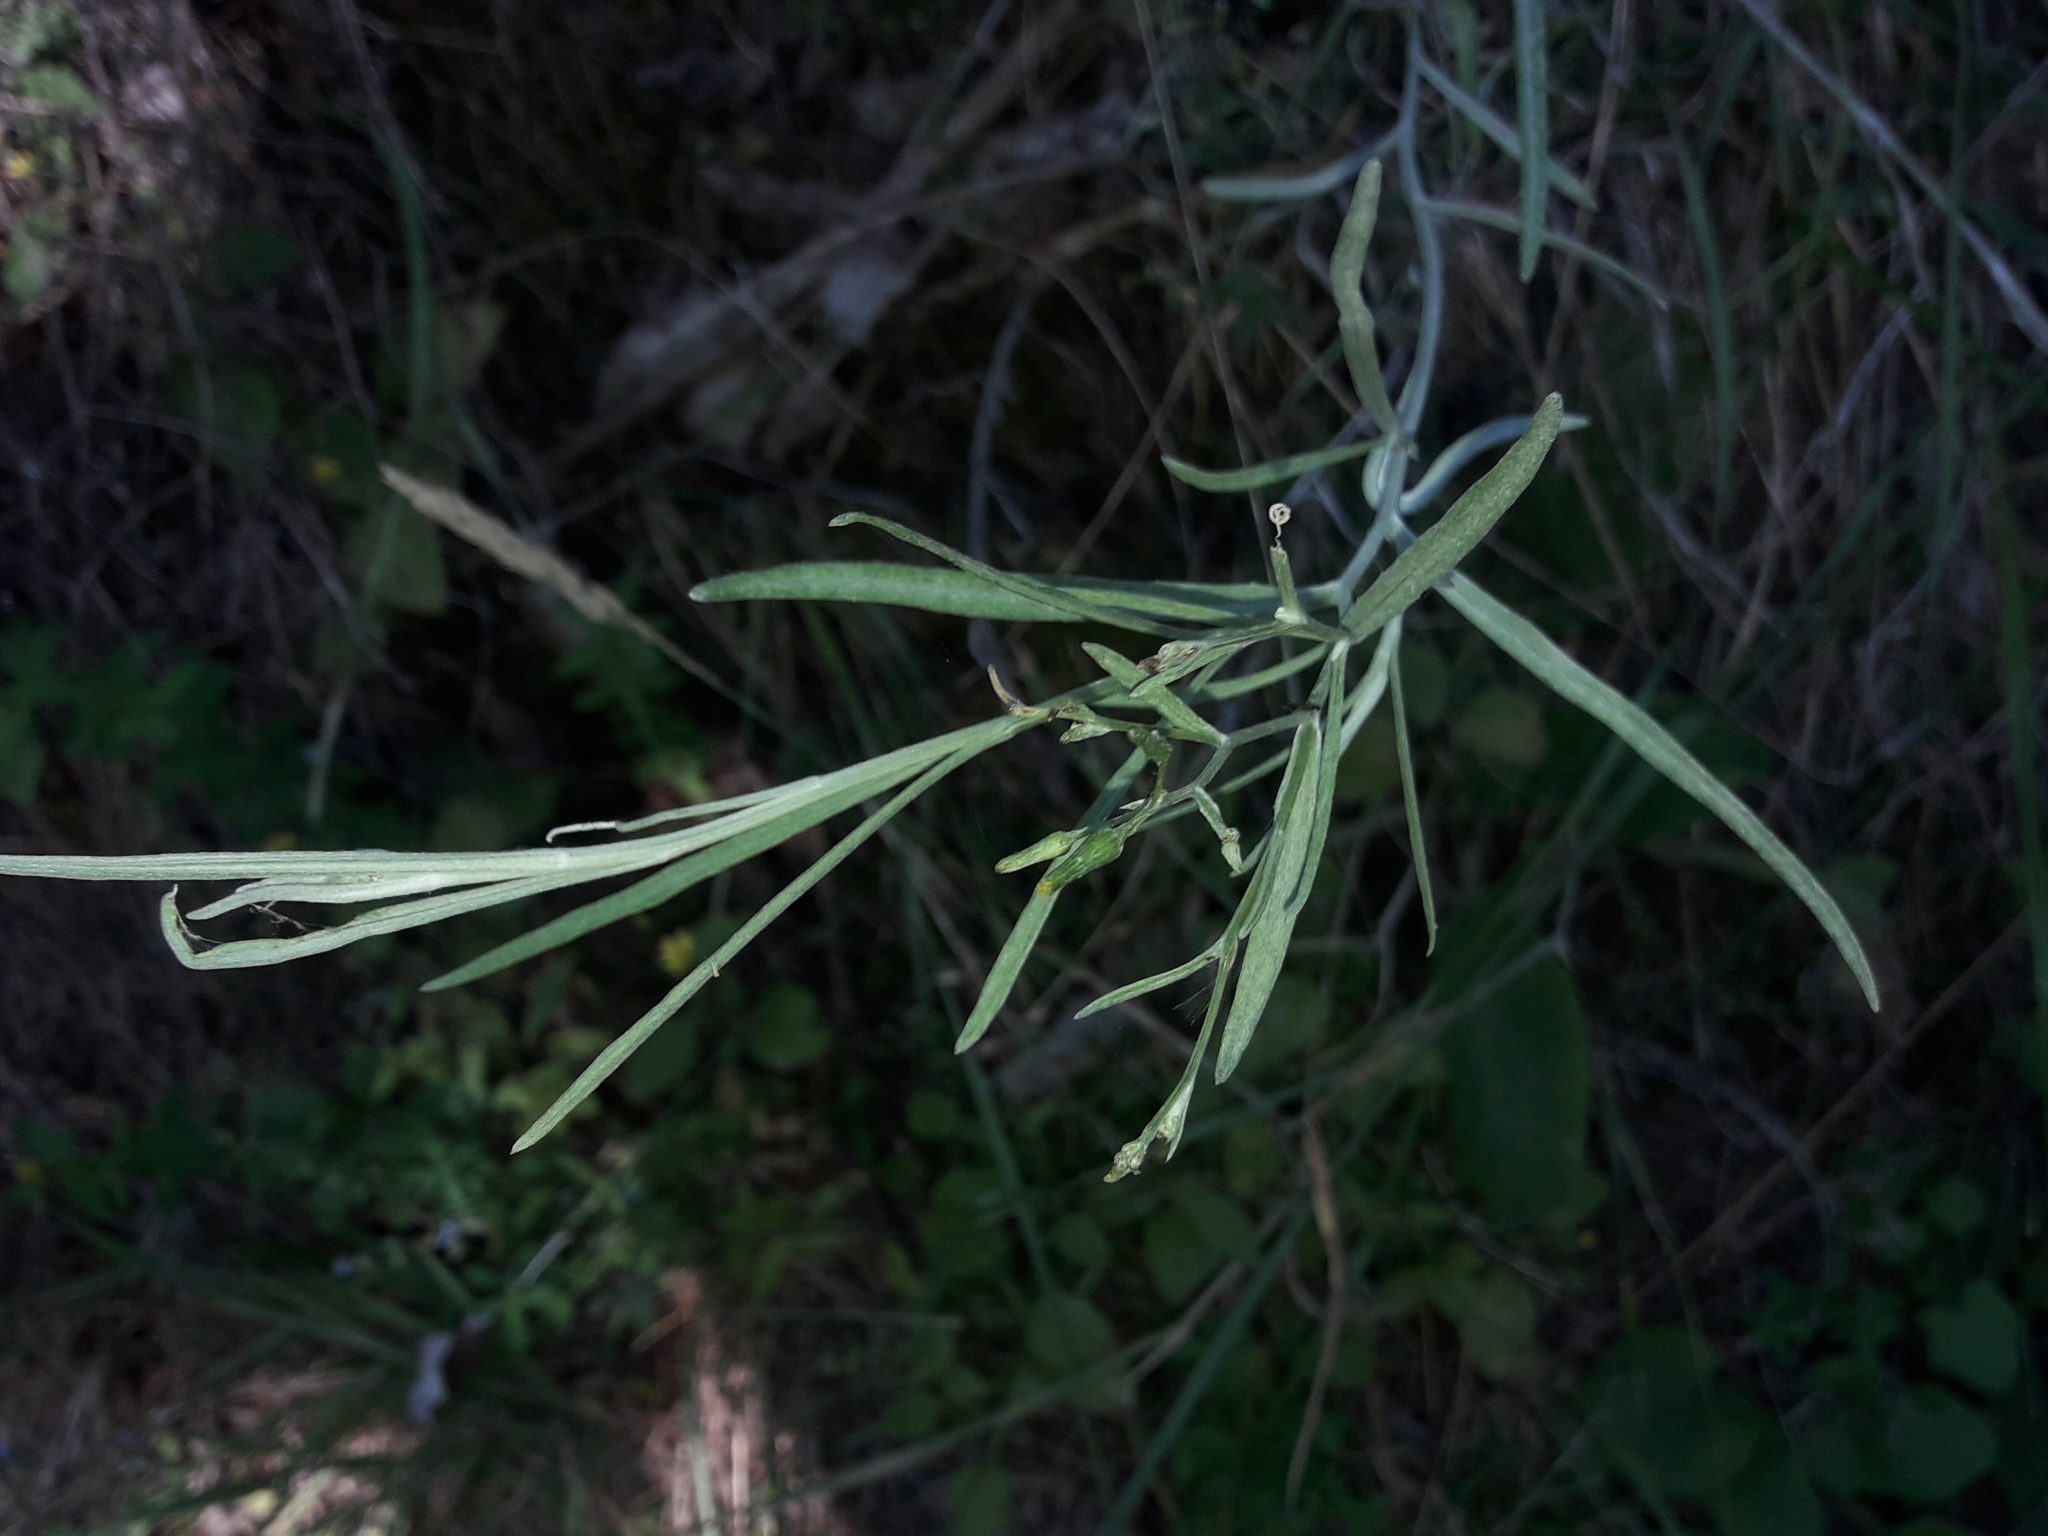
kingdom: Plantae
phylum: Tracheophyta
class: Magnoliopsida
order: Asterales
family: Asteraceae
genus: Senecio
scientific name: Senecio quadridentatus
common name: Cotton fireweed
